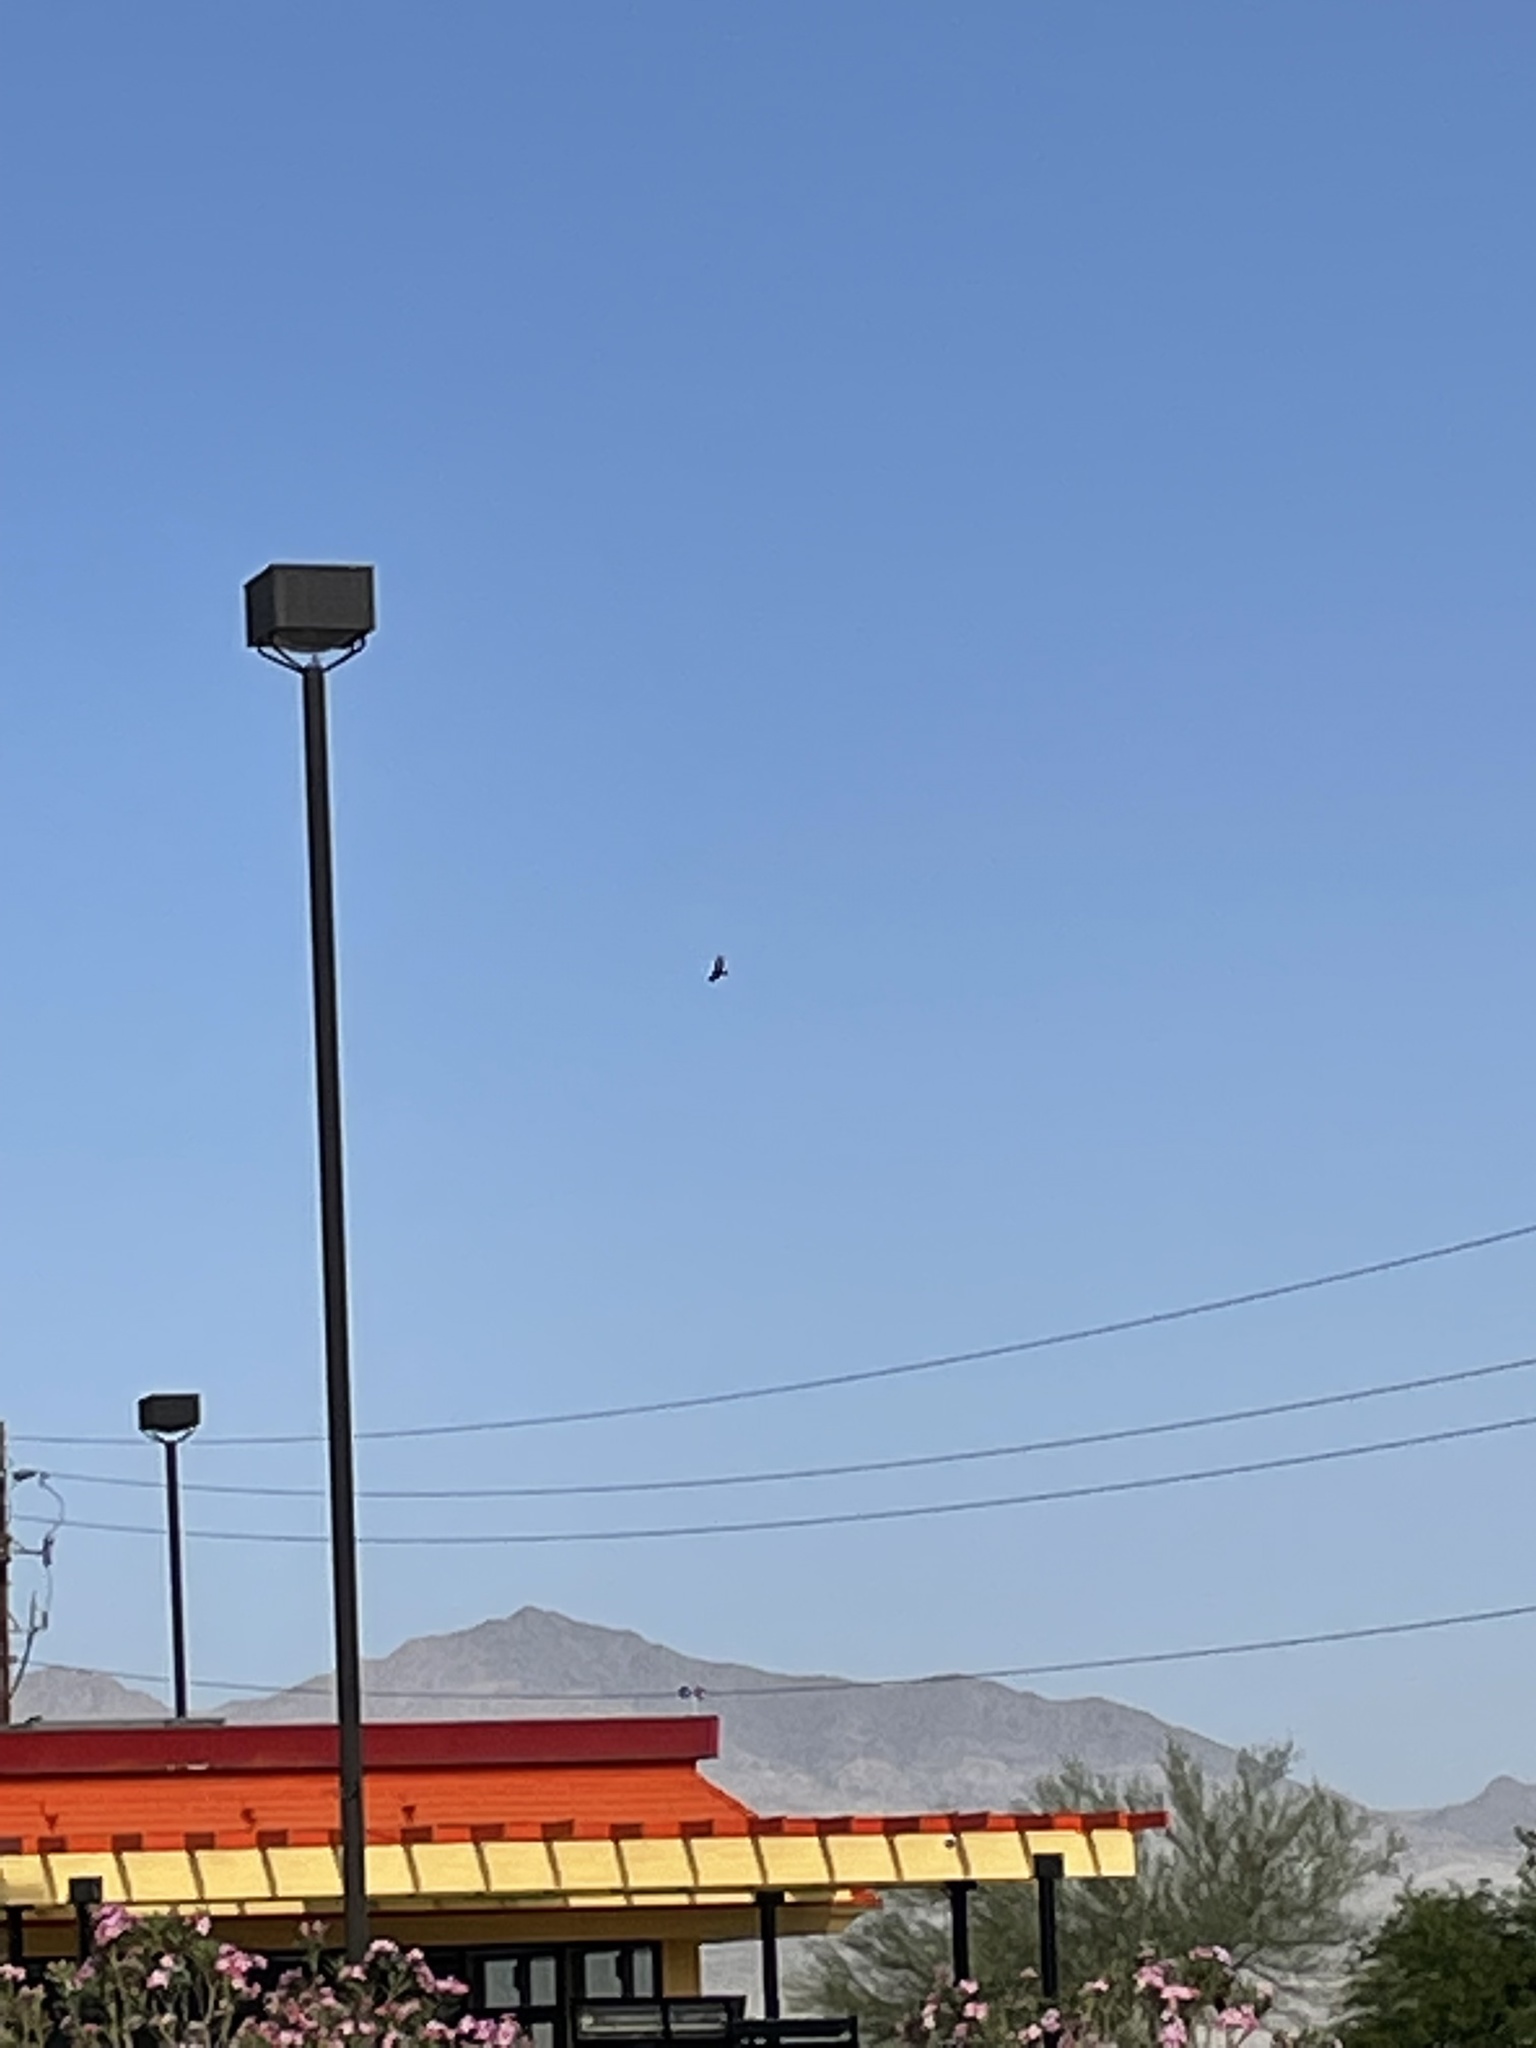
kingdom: Animalia
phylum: Chordata
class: Aves
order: Accipitriformes
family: Cathartidae
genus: Cathartes
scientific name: Cathartes aura
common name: Turkey vulture
